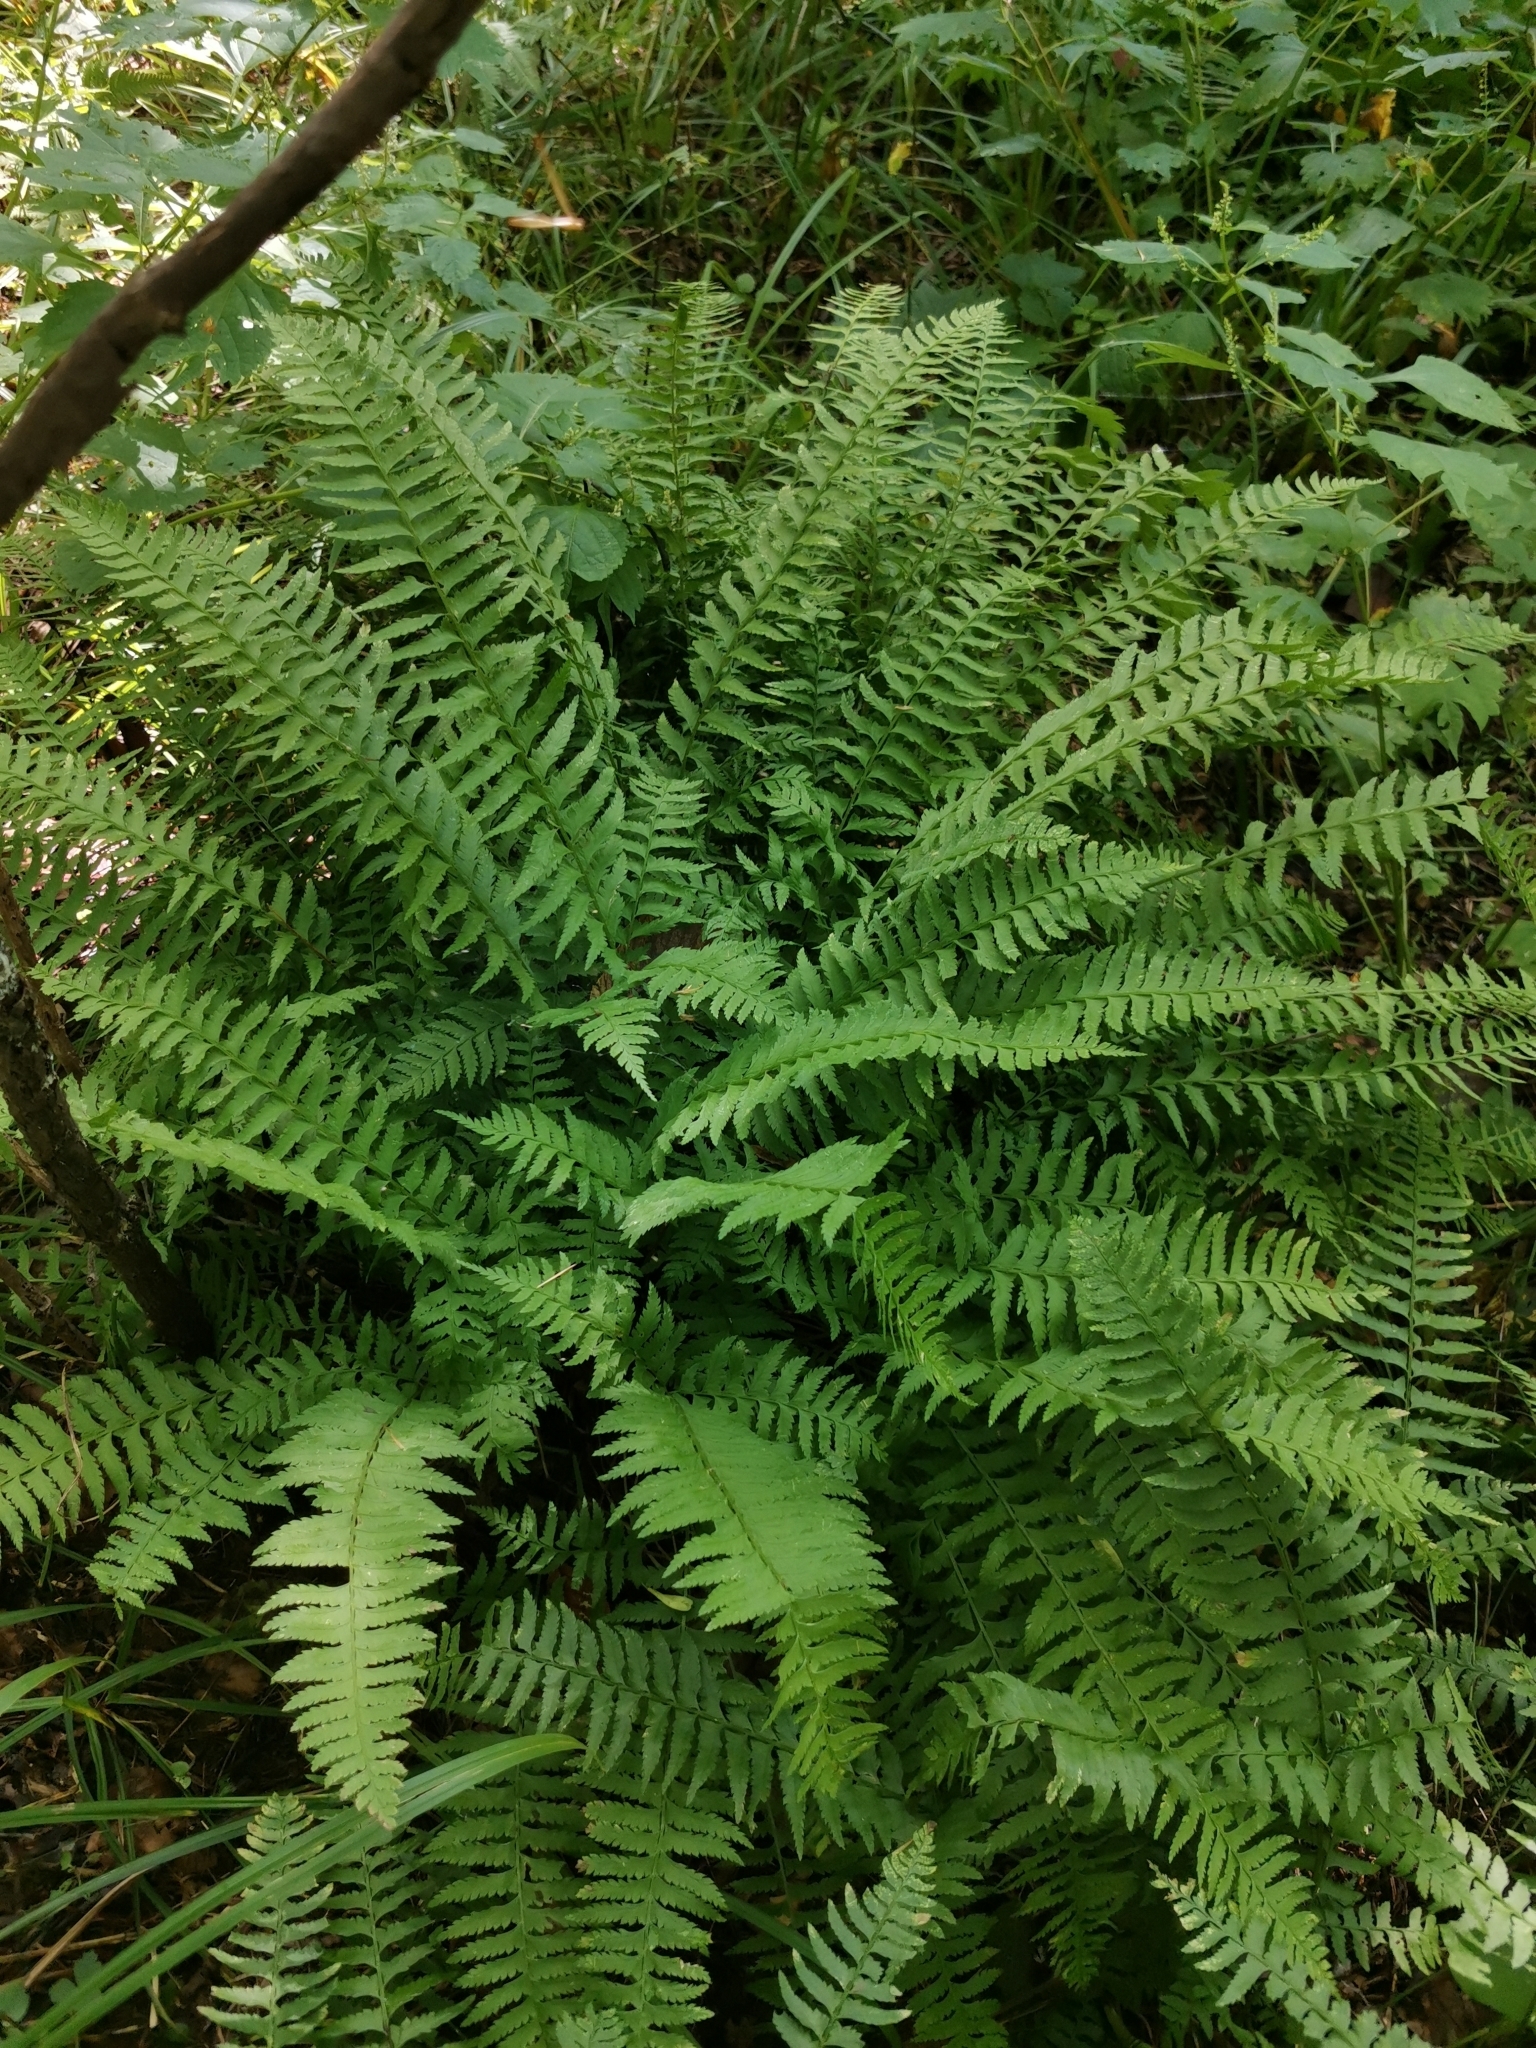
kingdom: Plantae
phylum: Tracheophyta
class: Polypodiopsida
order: Polypodiales
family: Dryopteridaceae
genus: Polystichum
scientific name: Polystichum tripteron
